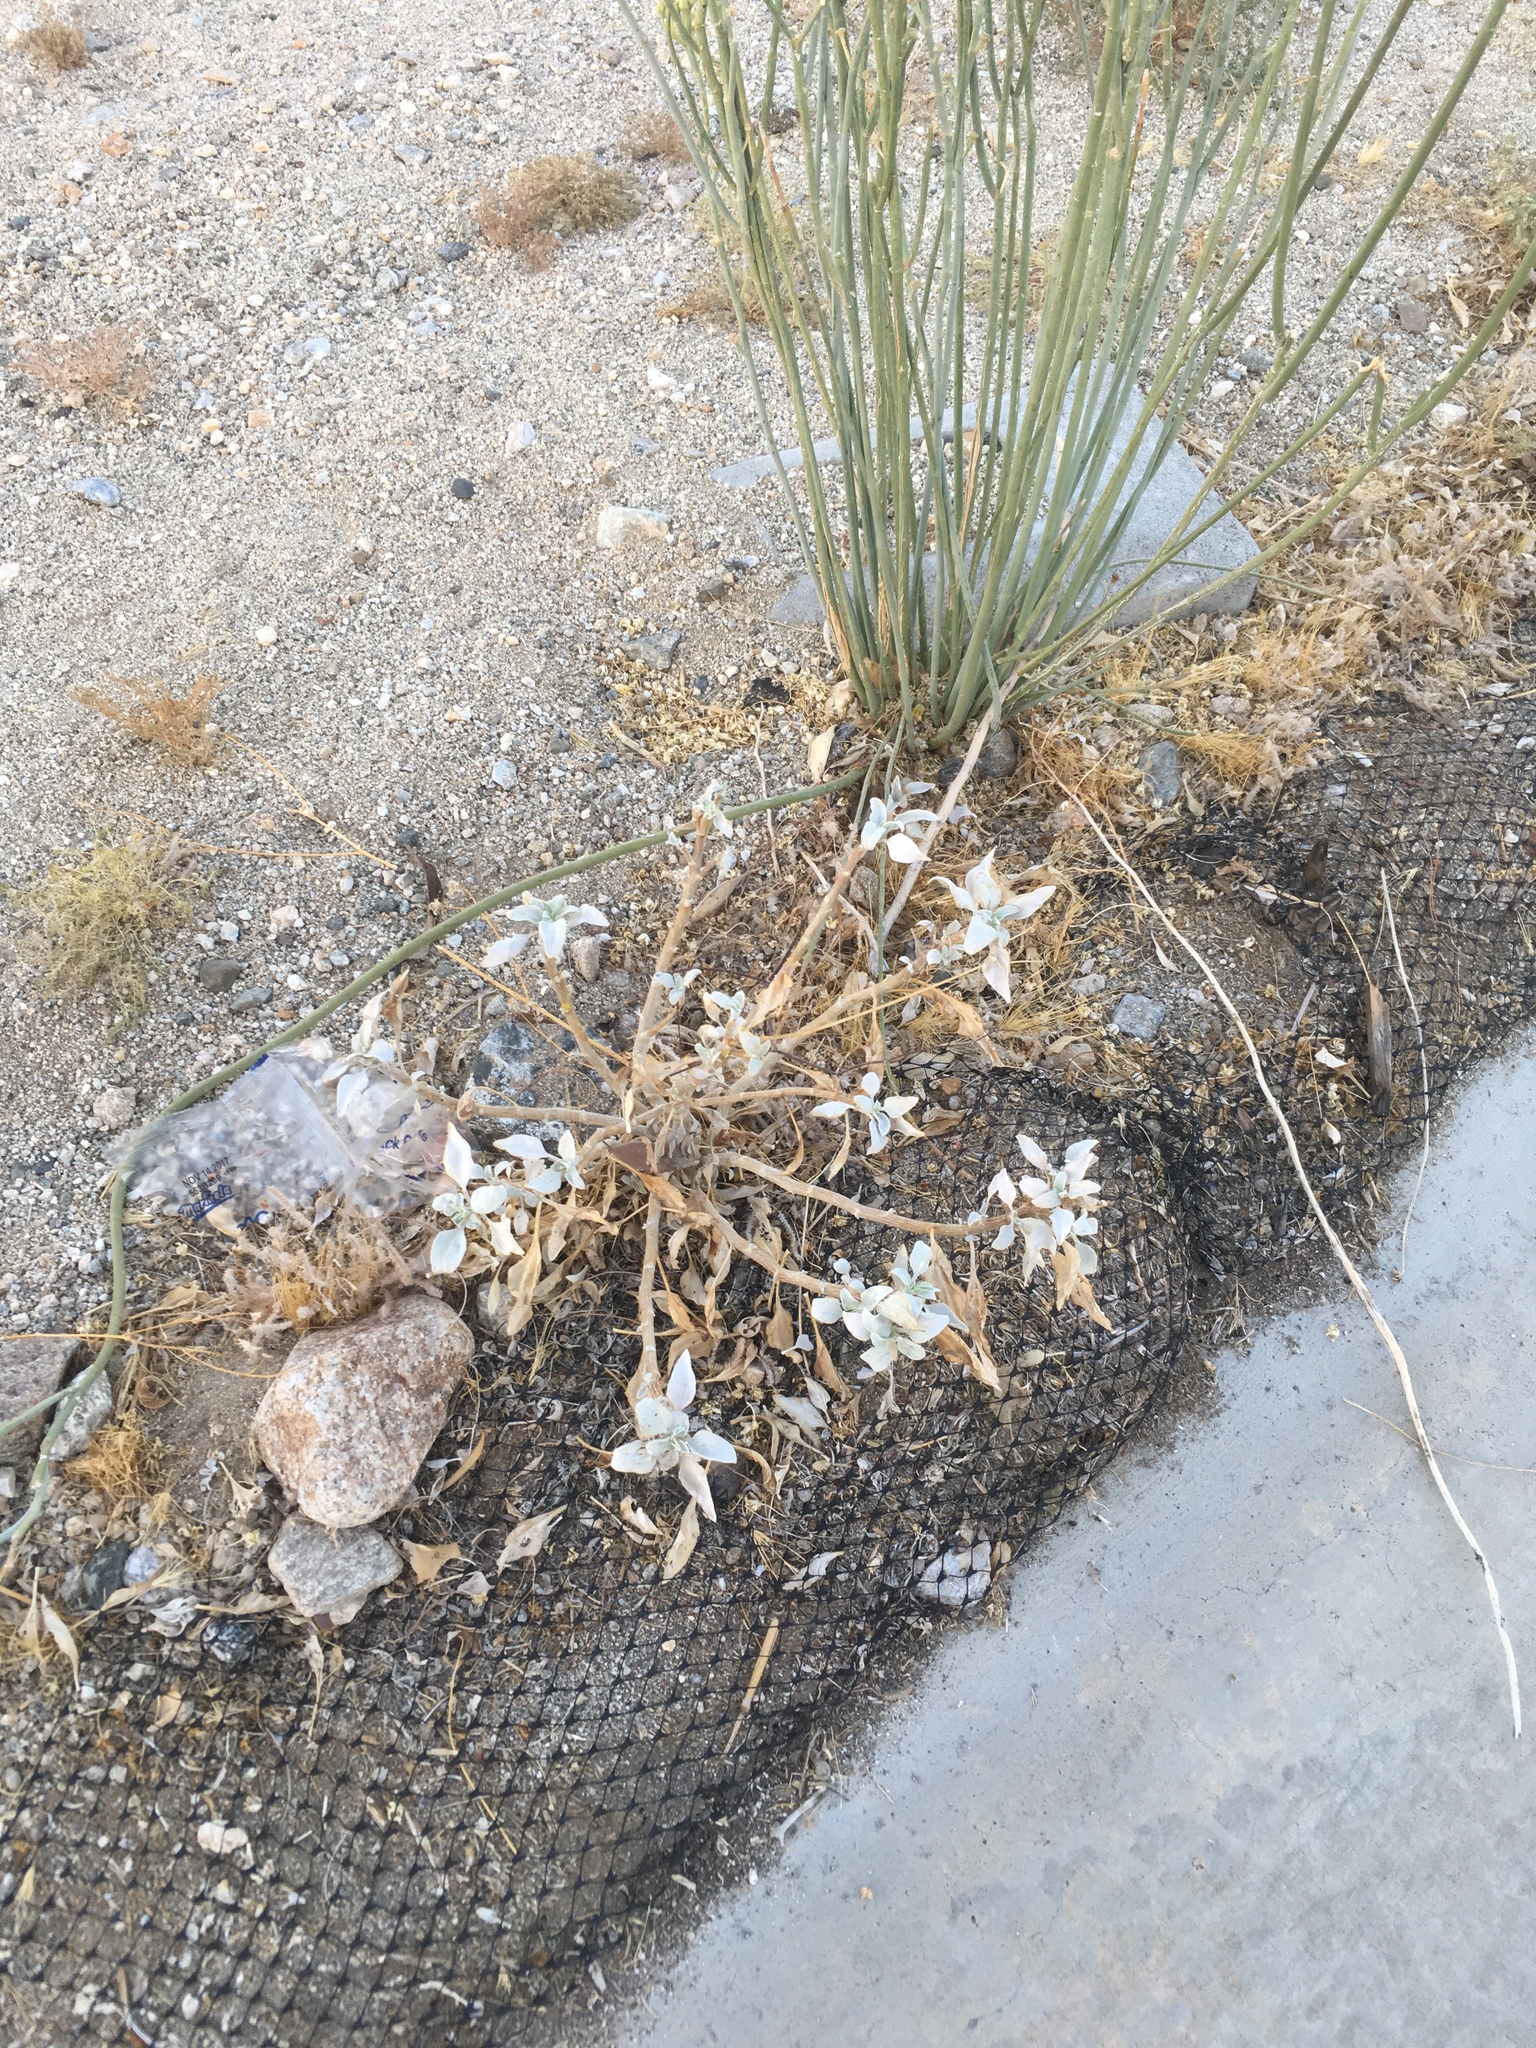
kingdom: Plantae
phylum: Tracheophyta
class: Magnoliopsida
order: Asterales
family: Asteraceae
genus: Encelia
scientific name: Encelia farinosa
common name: Brittlebush
